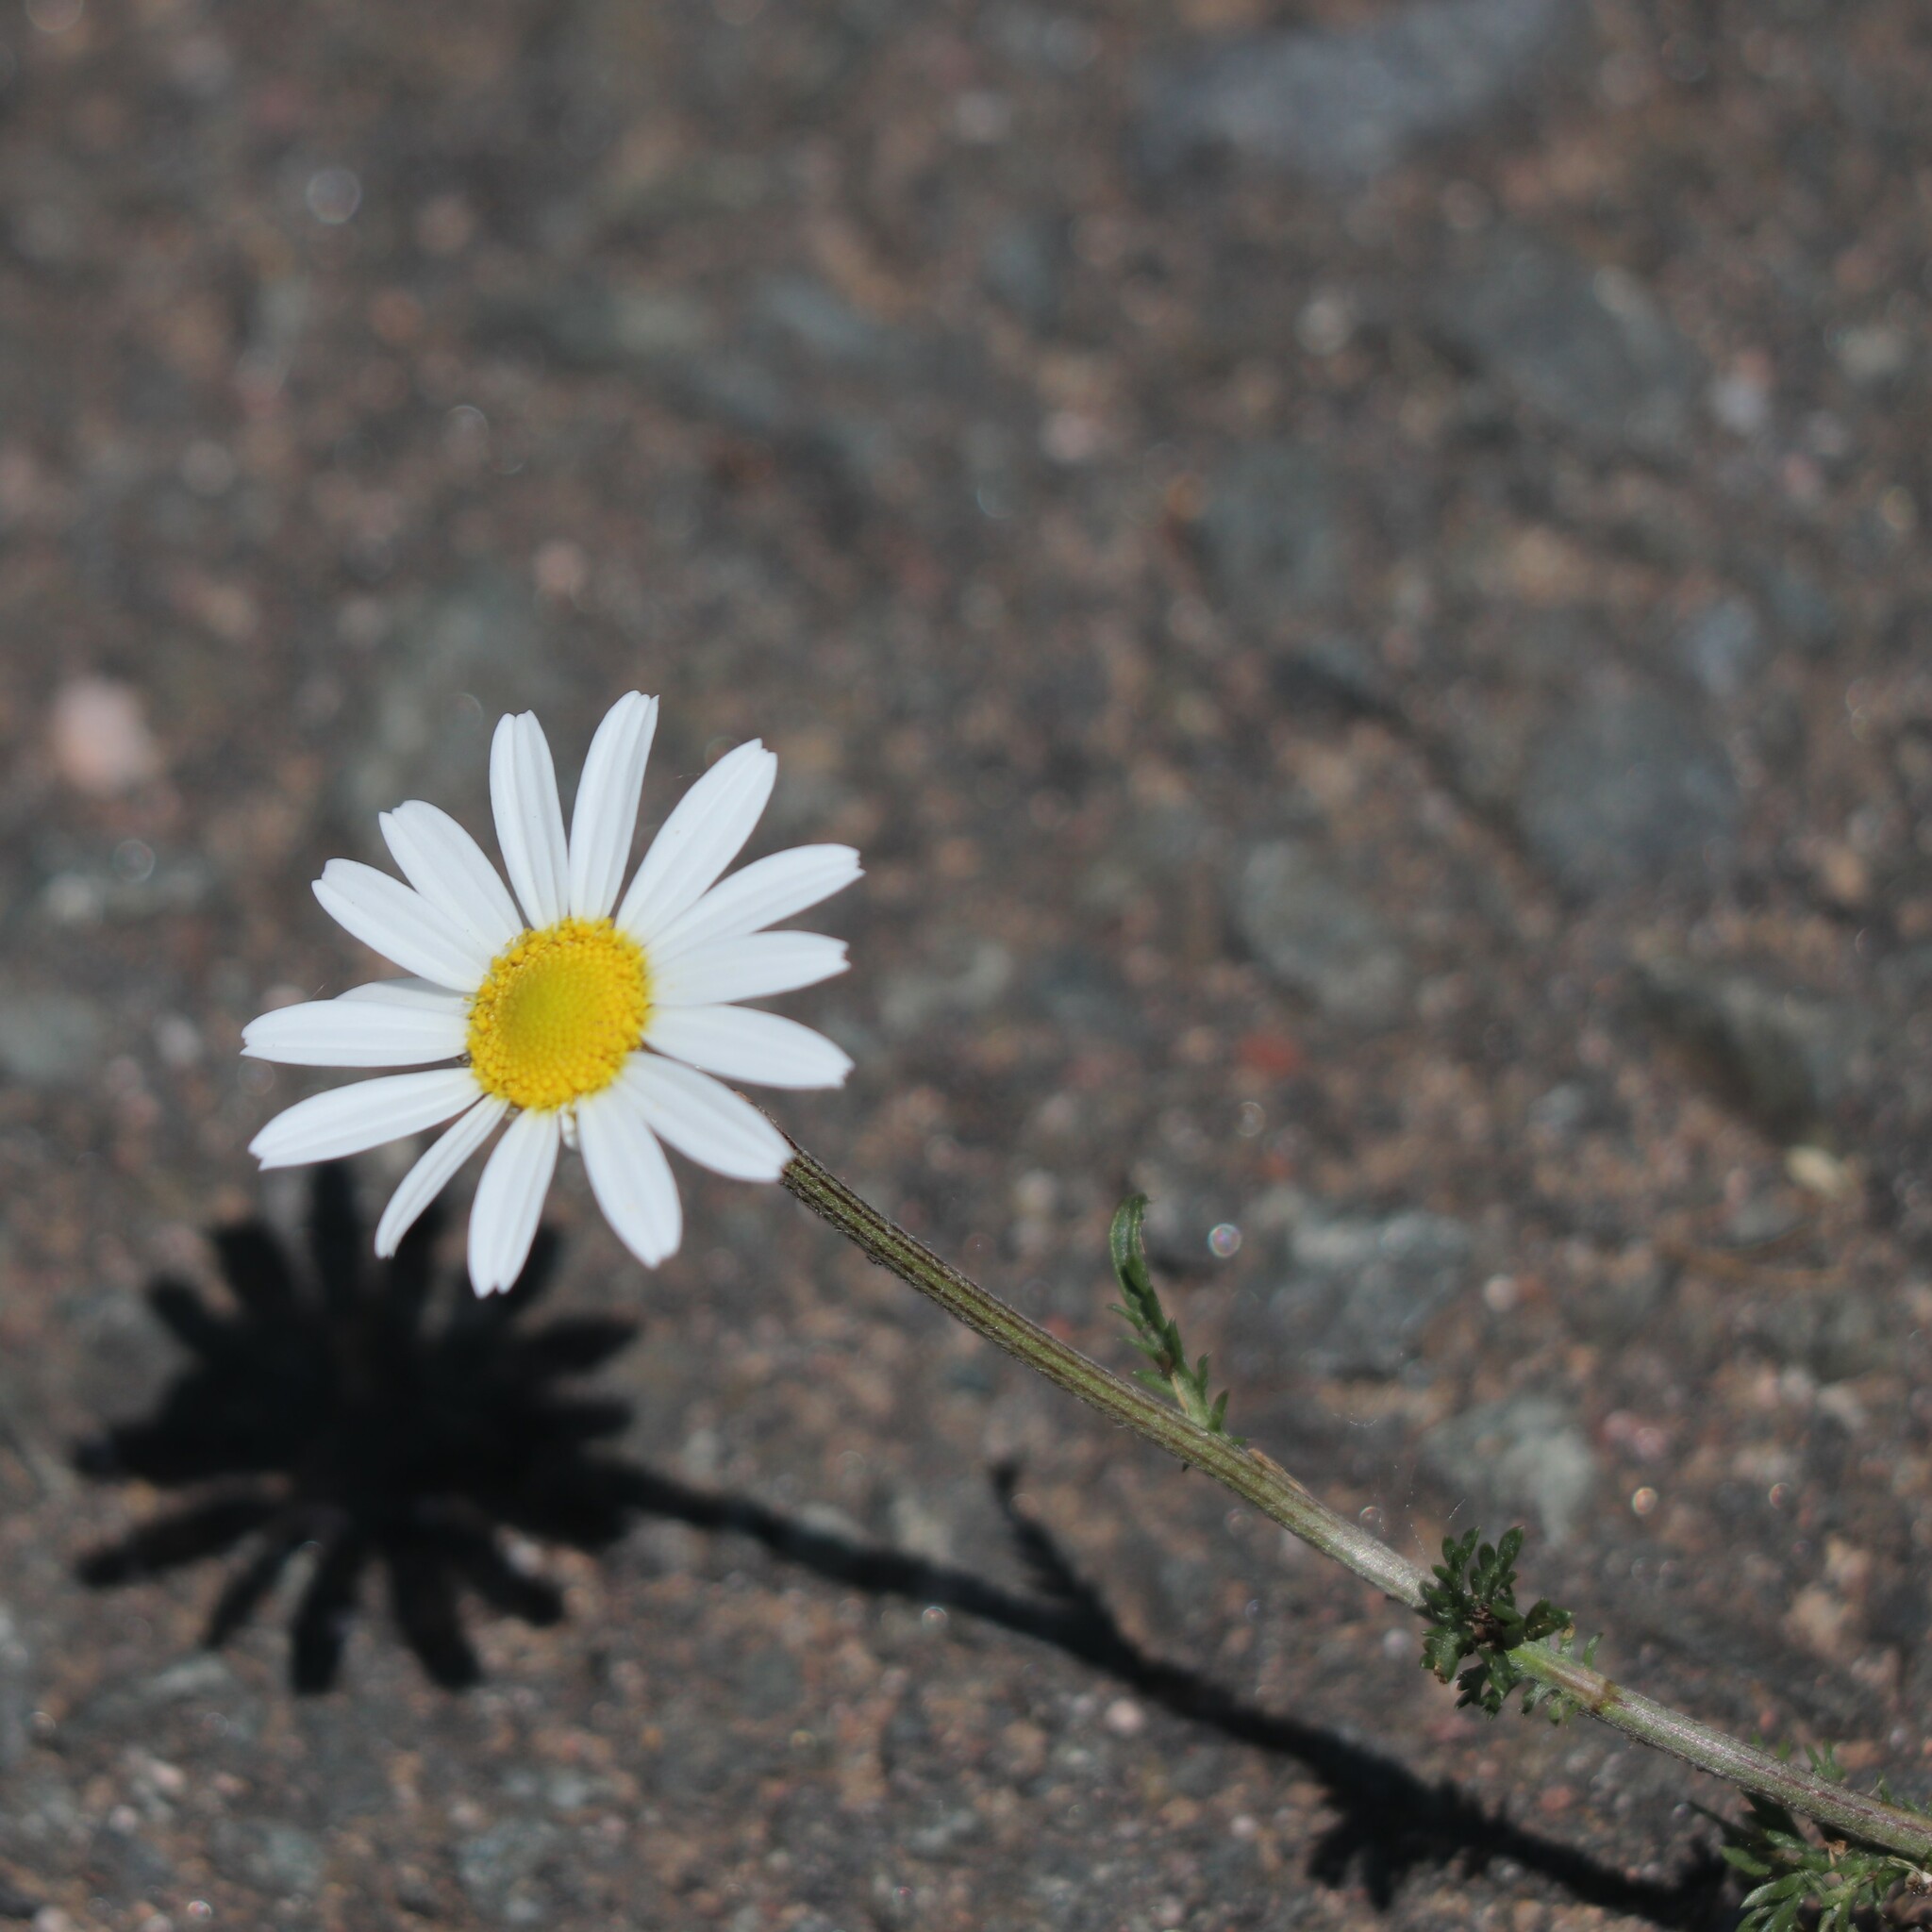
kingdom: Plantae
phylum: Tracheophyta
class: Magnoliopsida
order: Asterales
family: Asteraceae
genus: Leucanthemum
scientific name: Leucanthemum vulgare
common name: Oxeye daisy
